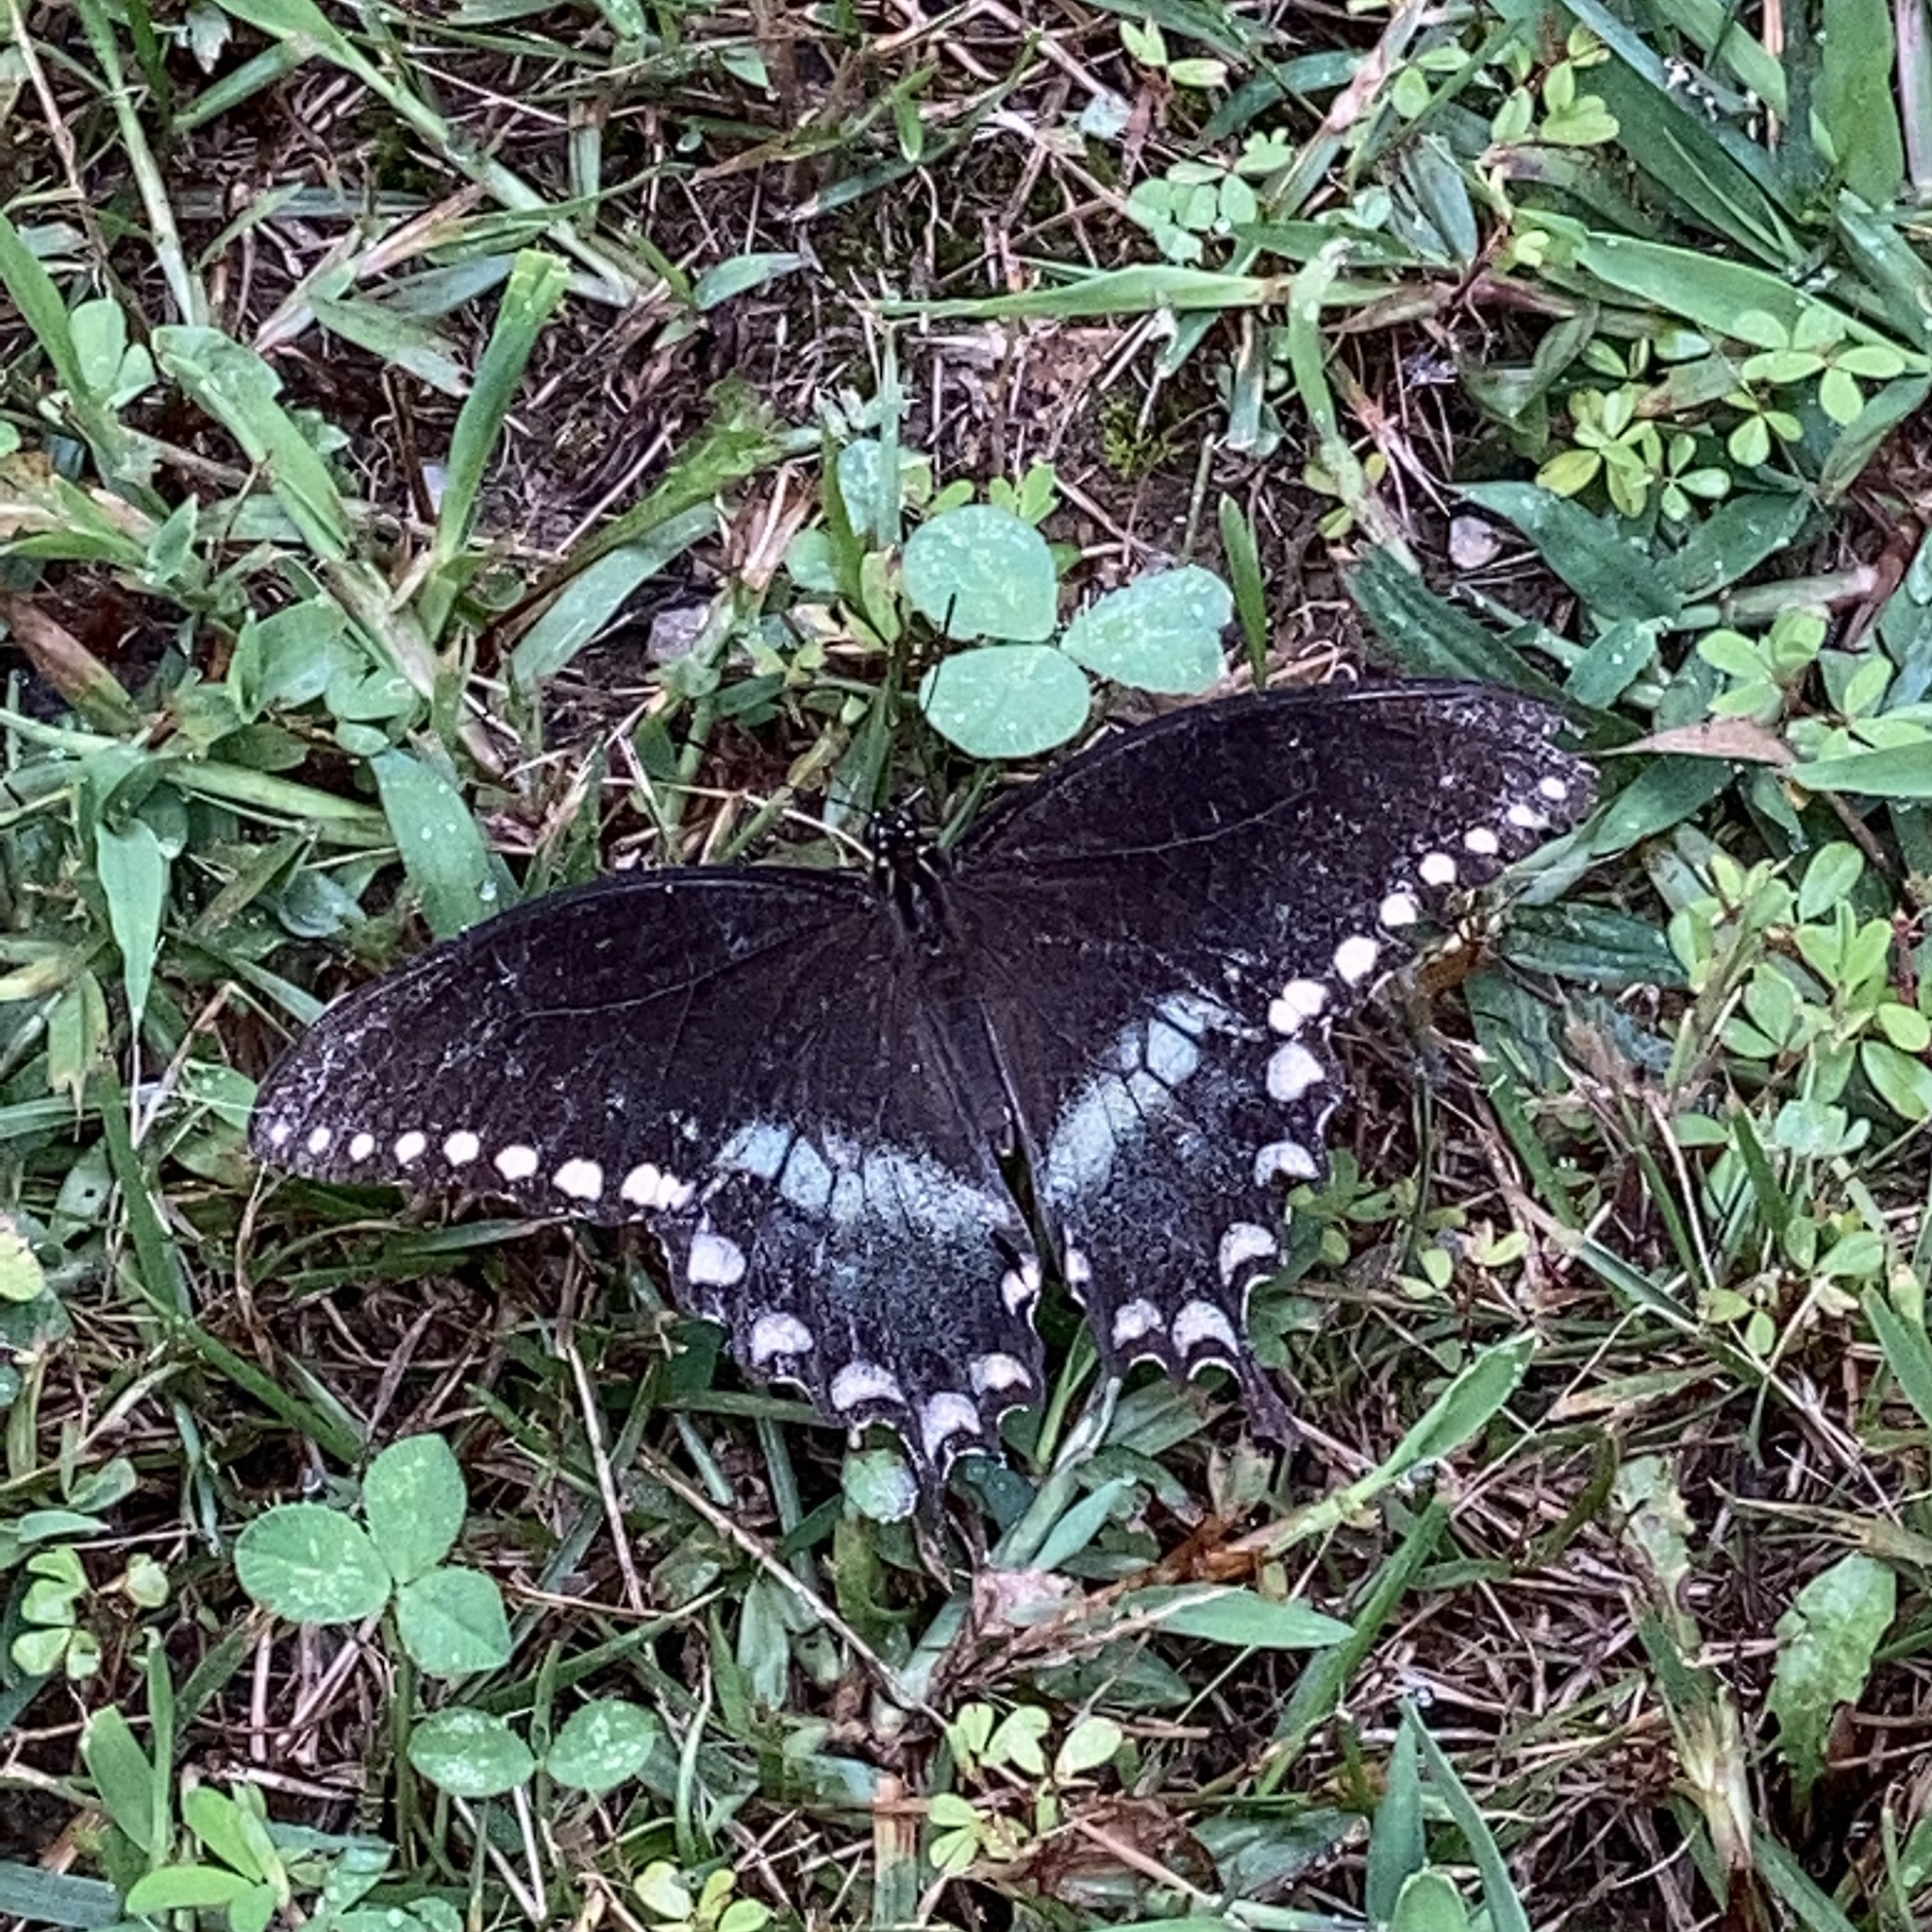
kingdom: Animalia
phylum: Arthropoda
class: Insecta
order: Lepidoptera
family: Papilionidae
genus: Papilio
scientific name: Papilio troilus
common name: Spicebush swallowtail
